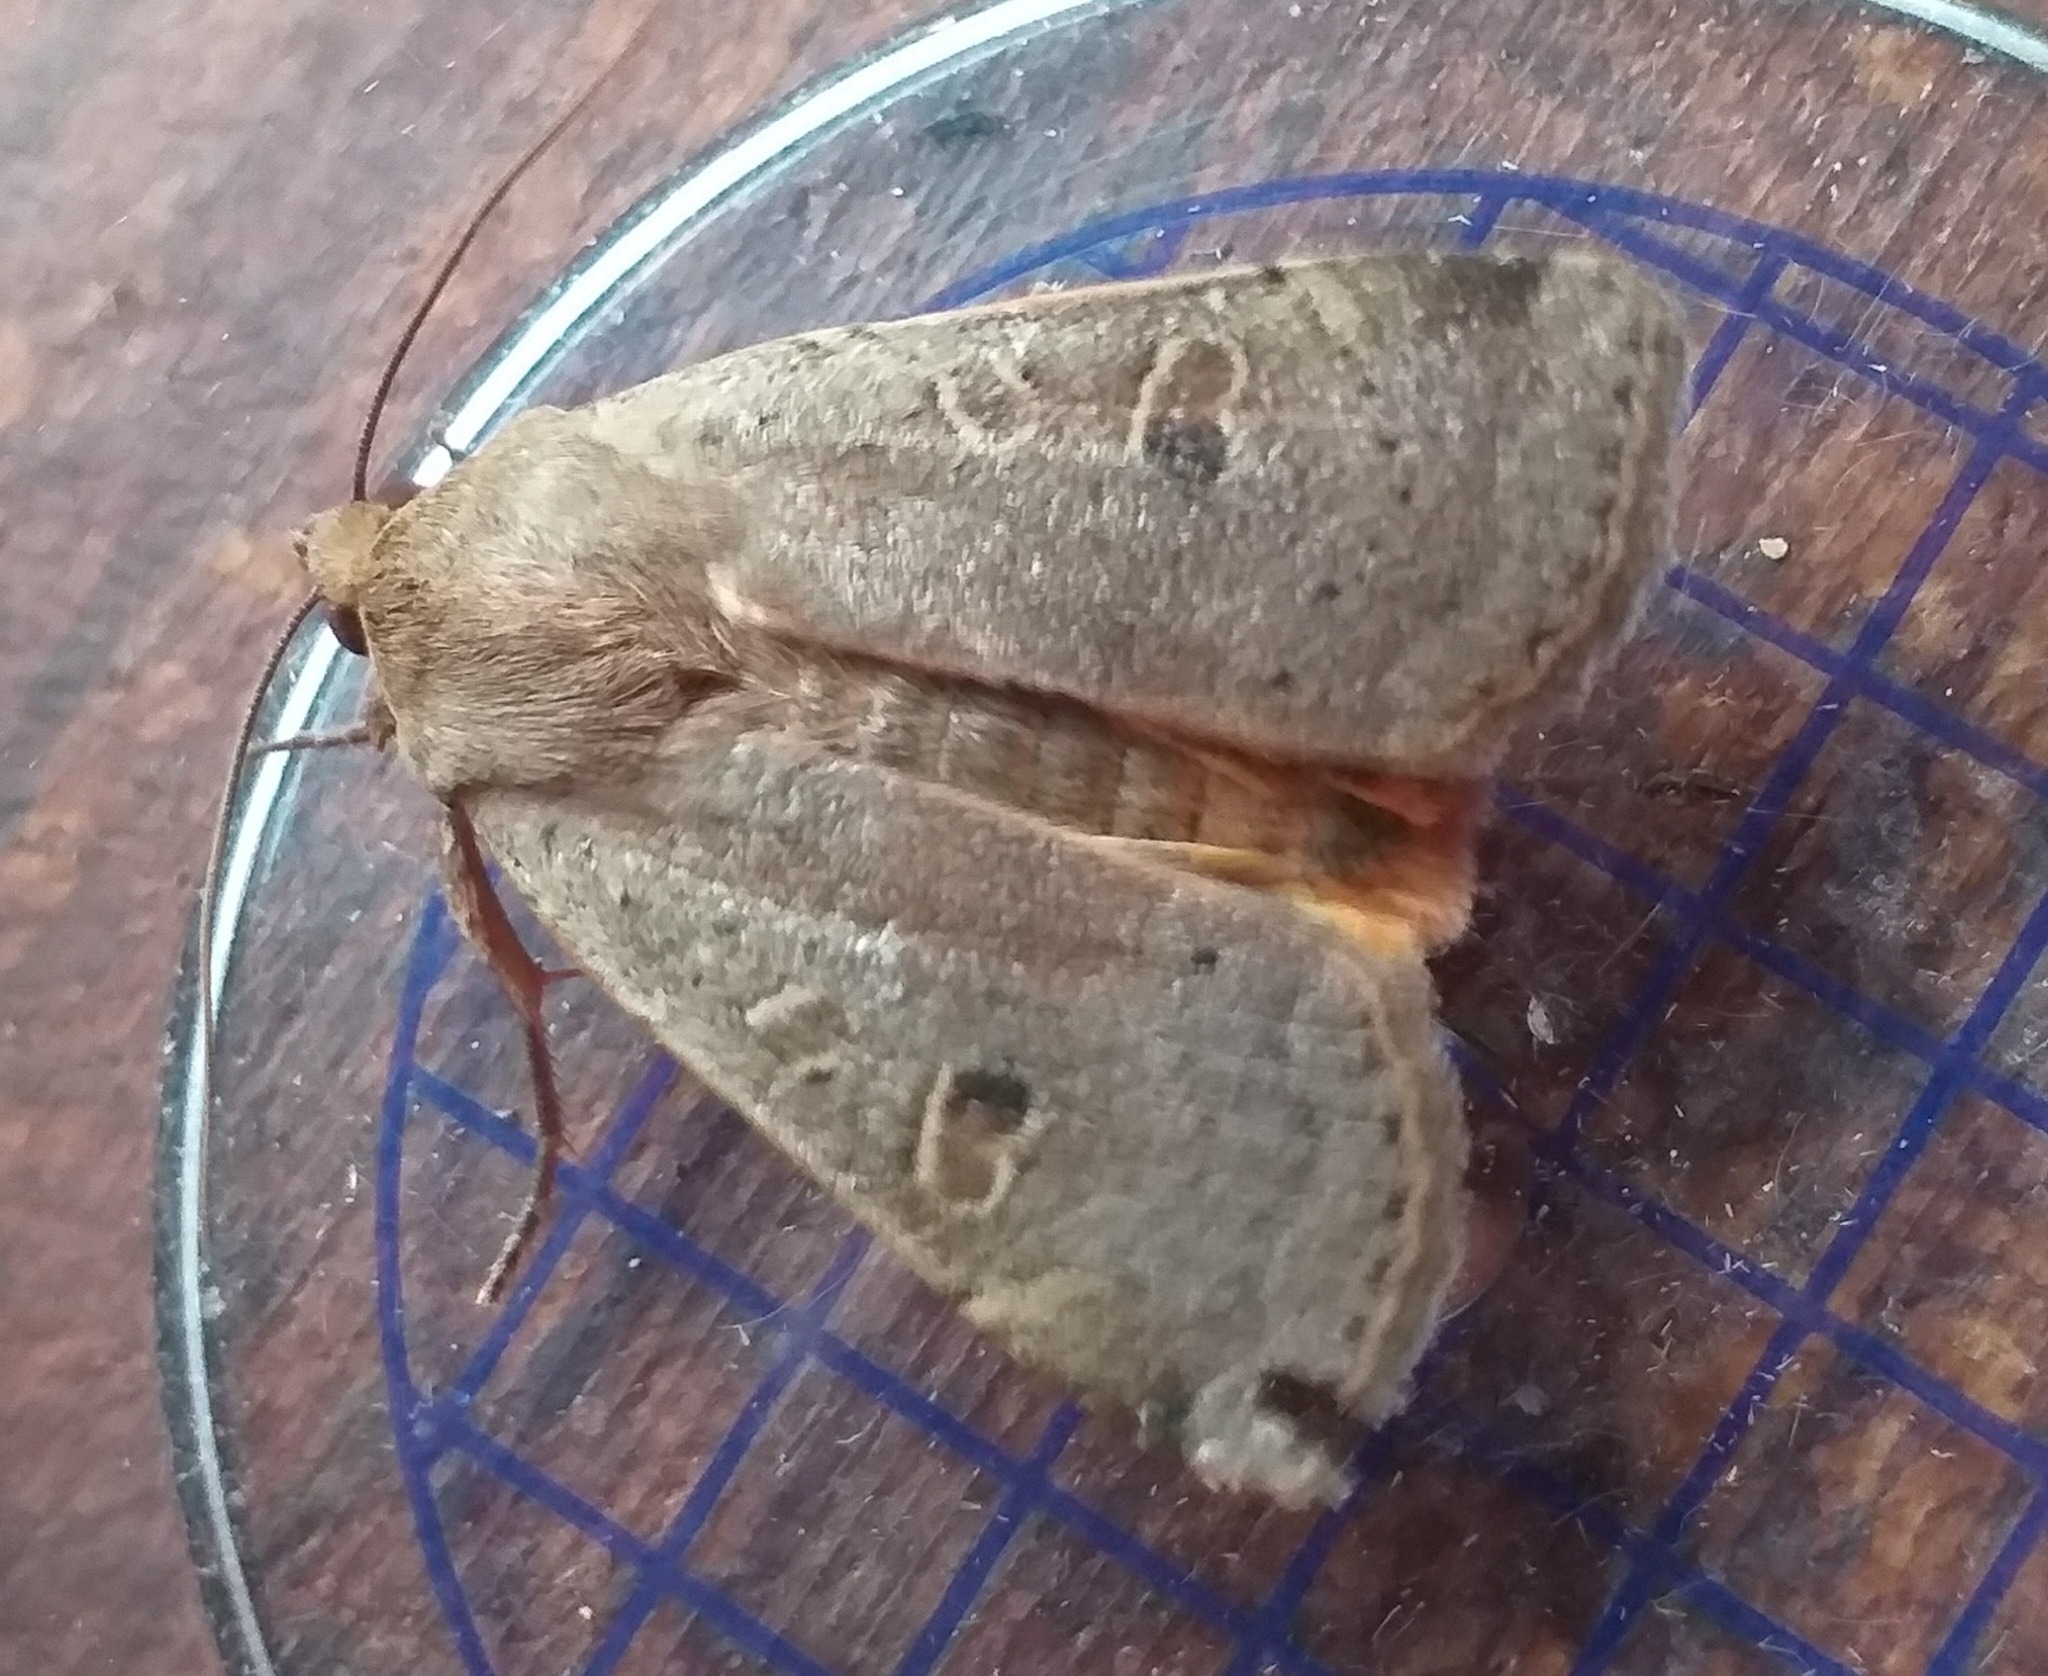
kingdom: Animalia
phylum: Arthropoda
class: Insecta
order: Lepidoptera
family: Noctuidae
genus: Noctua
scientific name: Noctua comes
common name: Lesser yellow underwing
